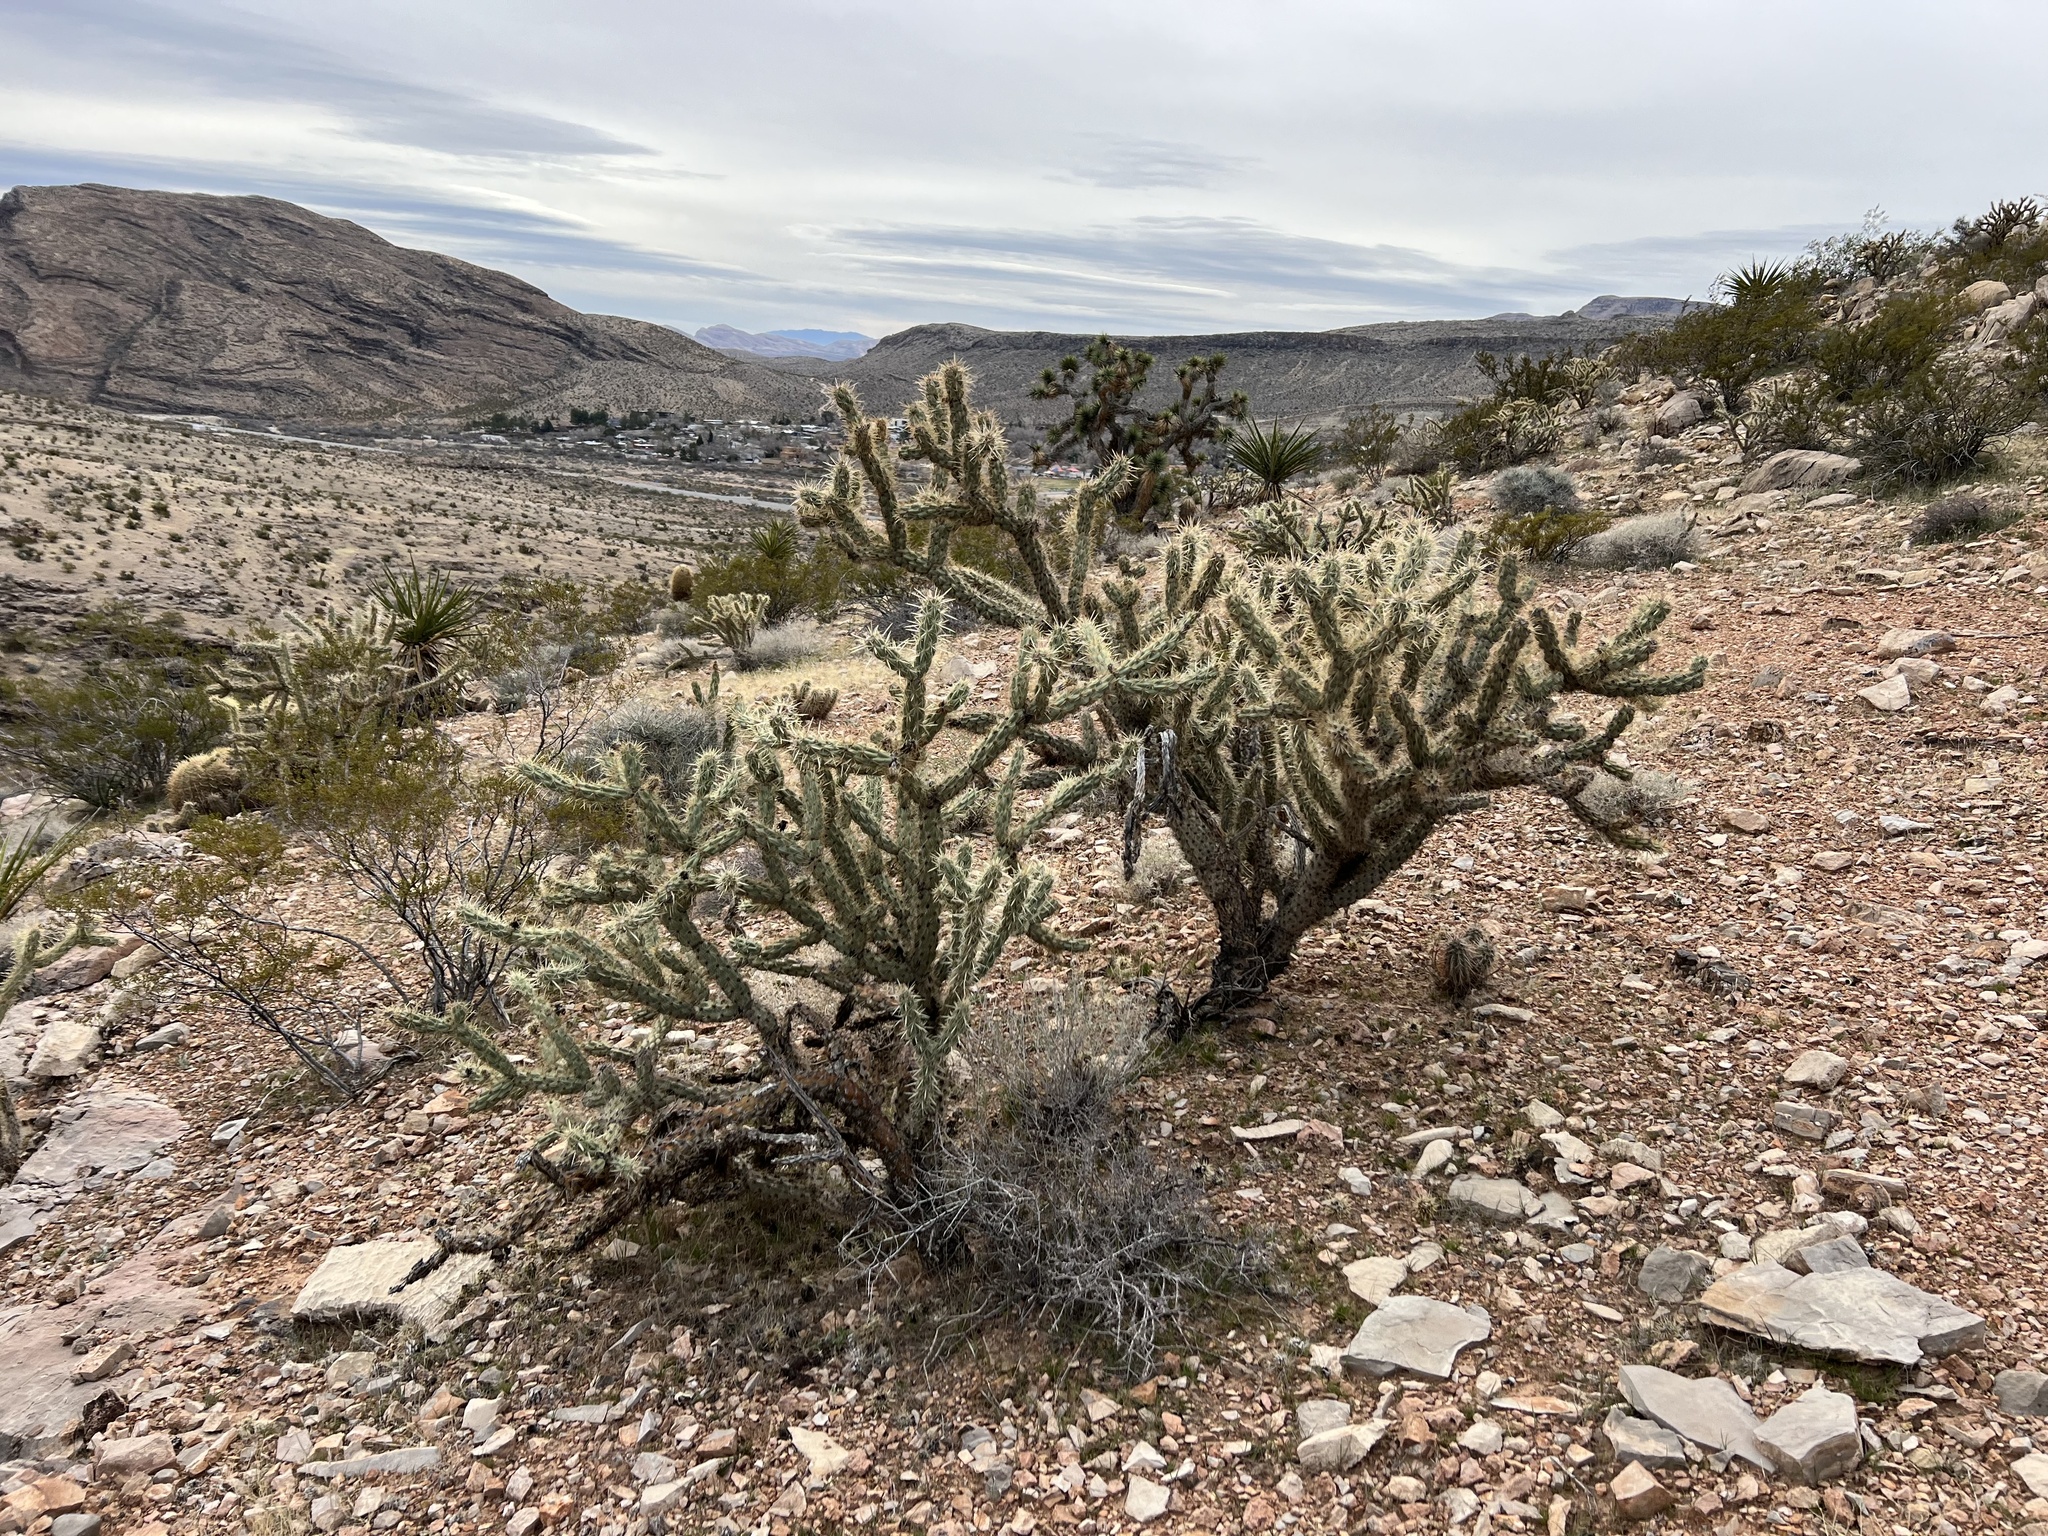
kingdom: Plantae
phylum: Tracheophyta
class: Magnoliopsida
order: Caryophyllales
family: Cactaceae
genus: Cylindropuntia
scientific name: Cylindropuntia acanthocarpa
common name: Buckhorn cholla
